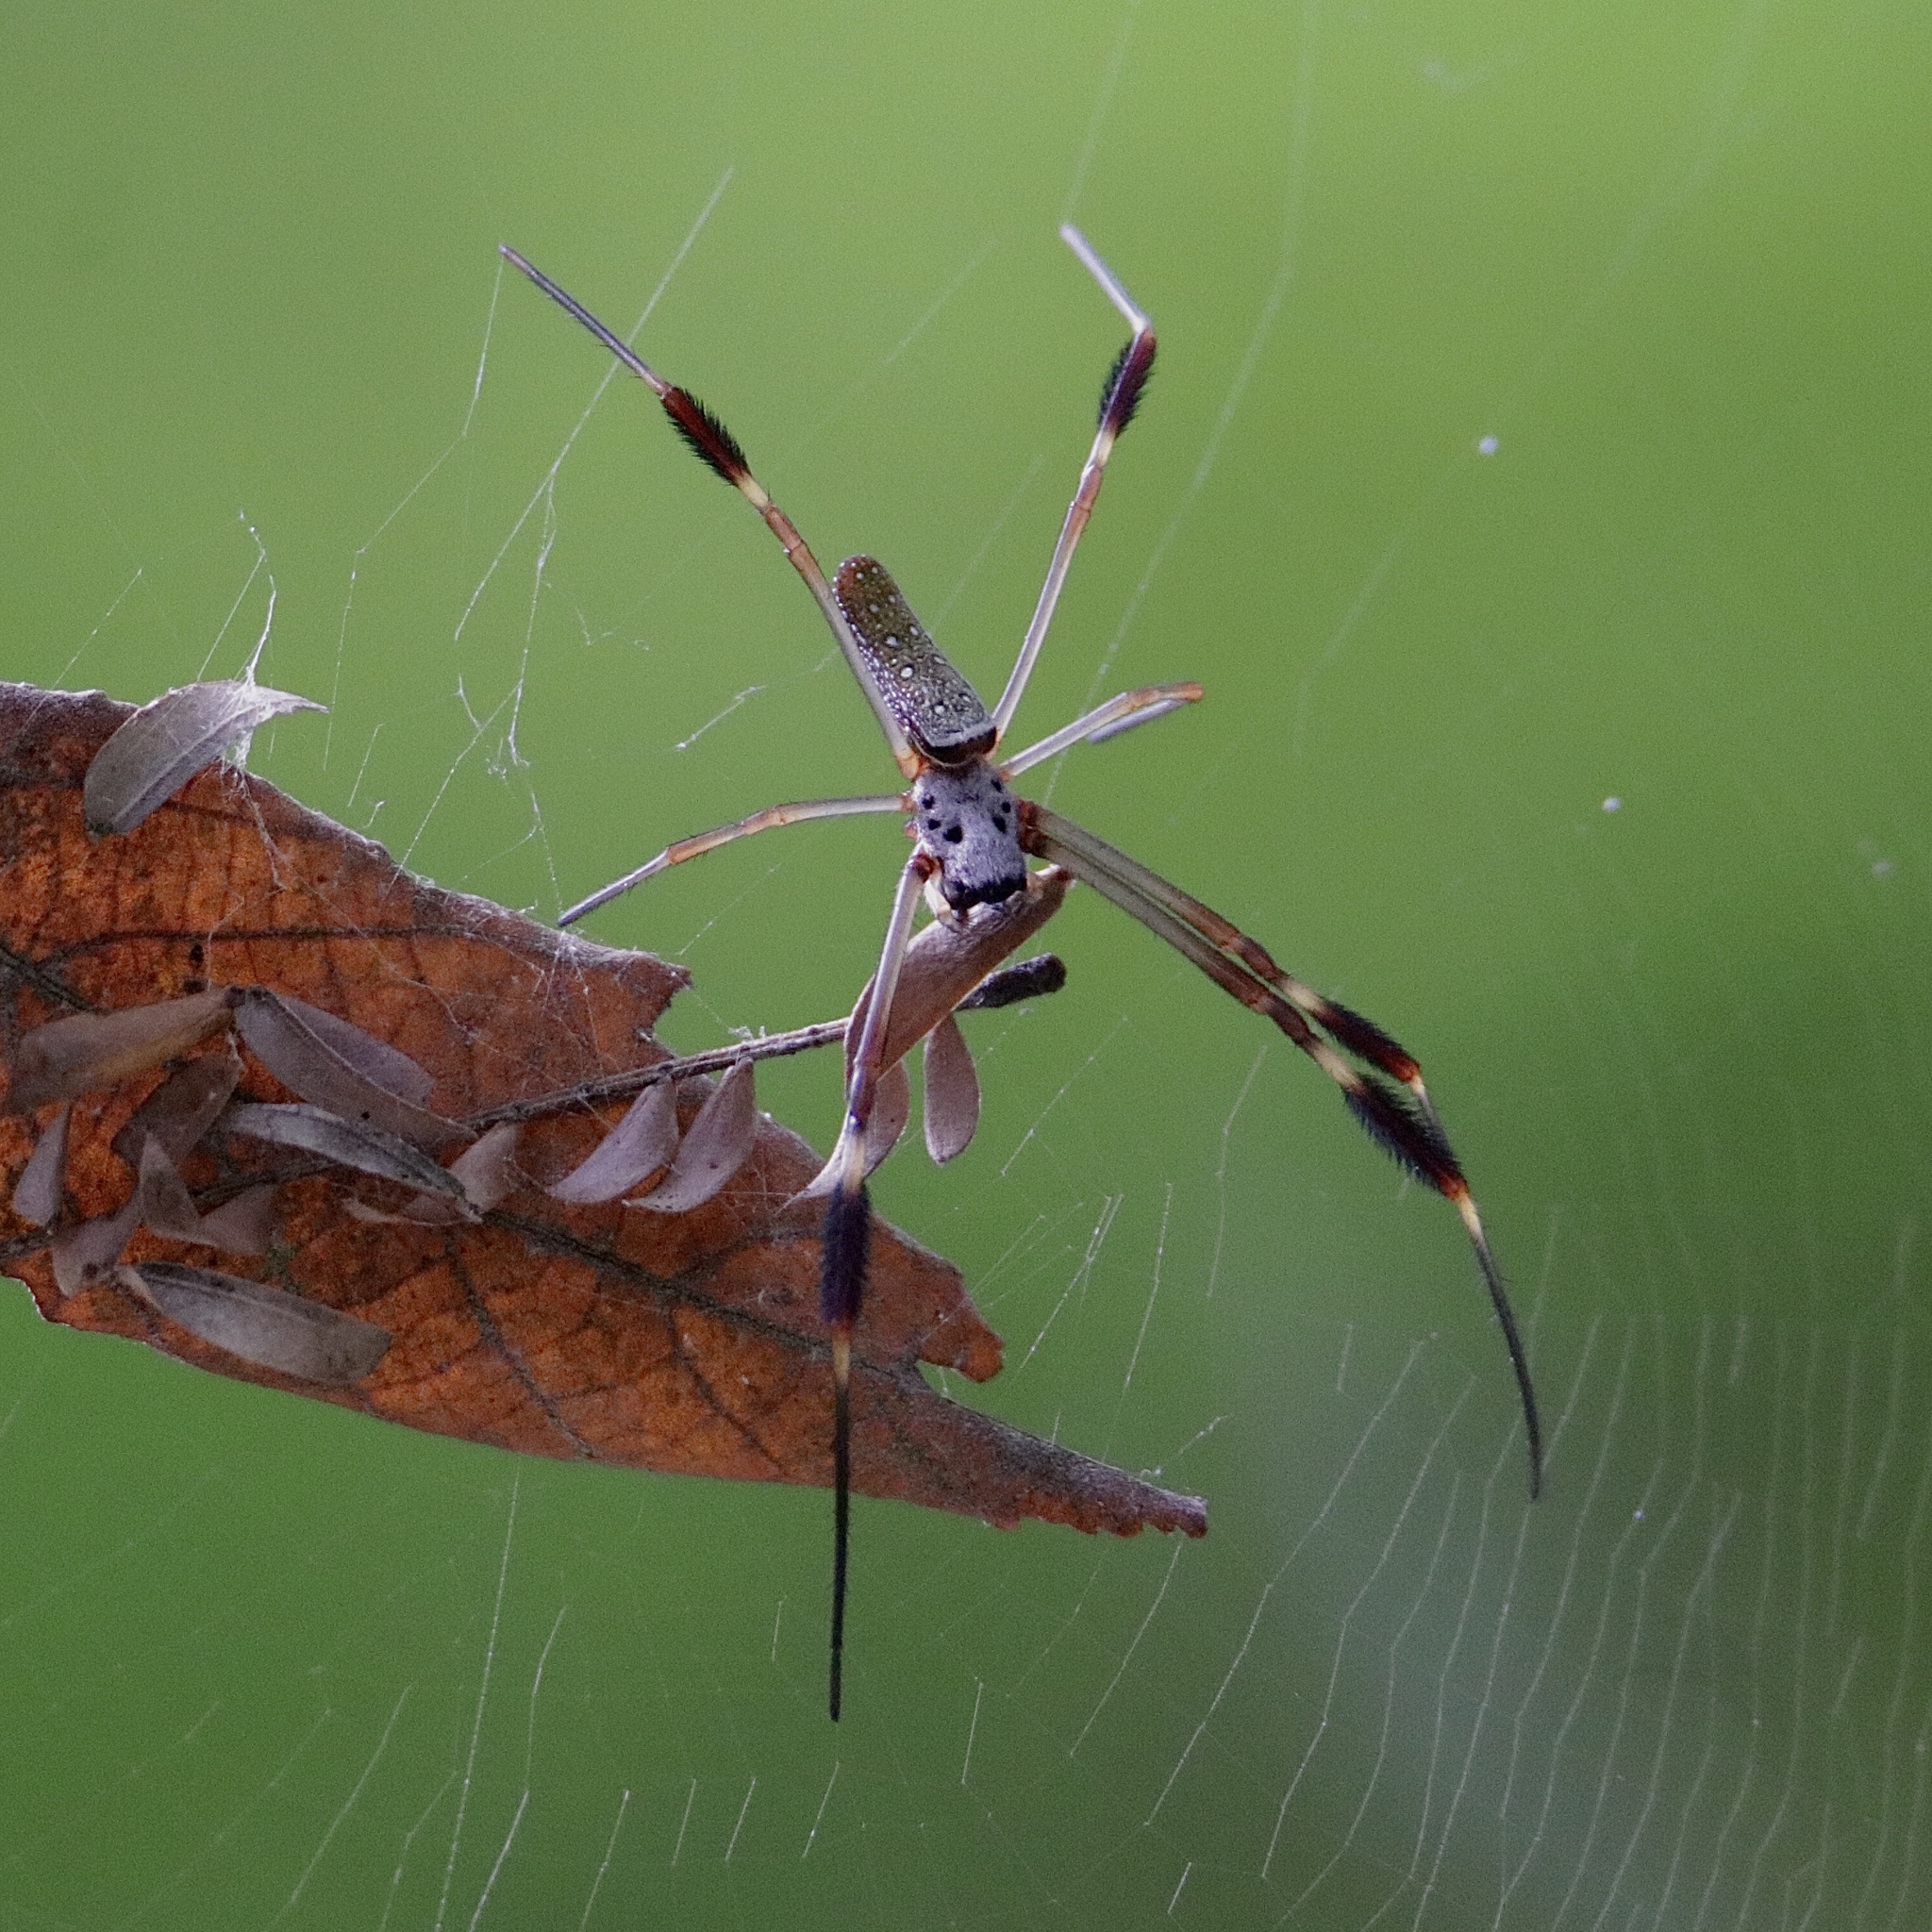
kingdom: Animalia
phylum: Arthropoda
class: Arachnida
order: Araneae
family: Araneidae
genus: Trichonephila
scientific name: Trichonephila clavipes
